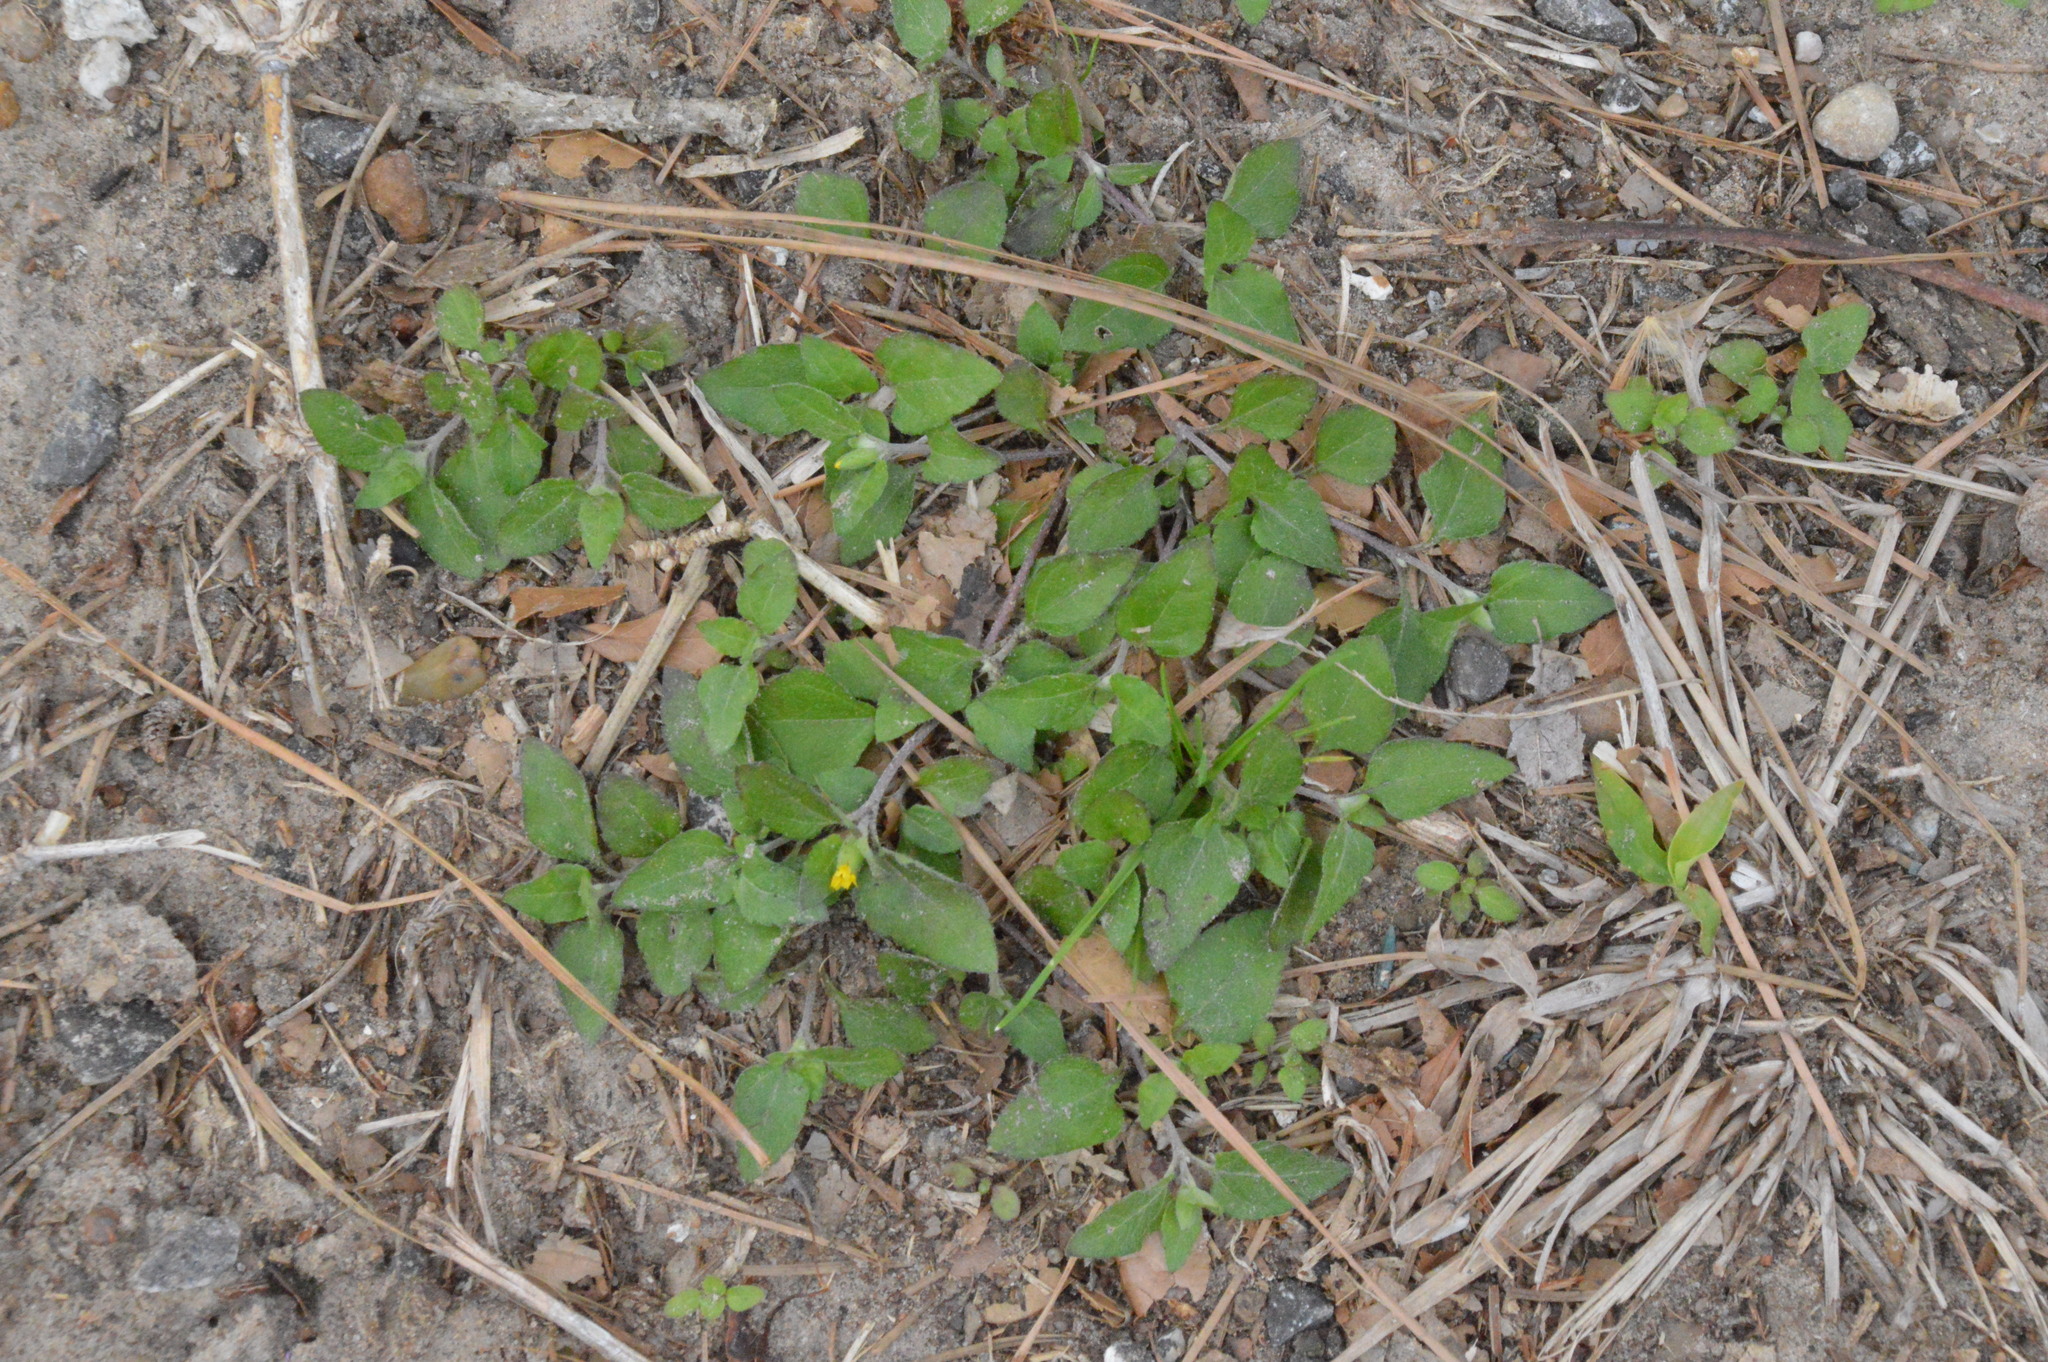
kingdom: Plantae
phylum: Tracheophyta
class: Magnoliopsida
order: Asterales
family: Asteraceae
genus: Calyptocarpus
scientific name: Calyptocarpus vialis
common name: Straggler daisy
